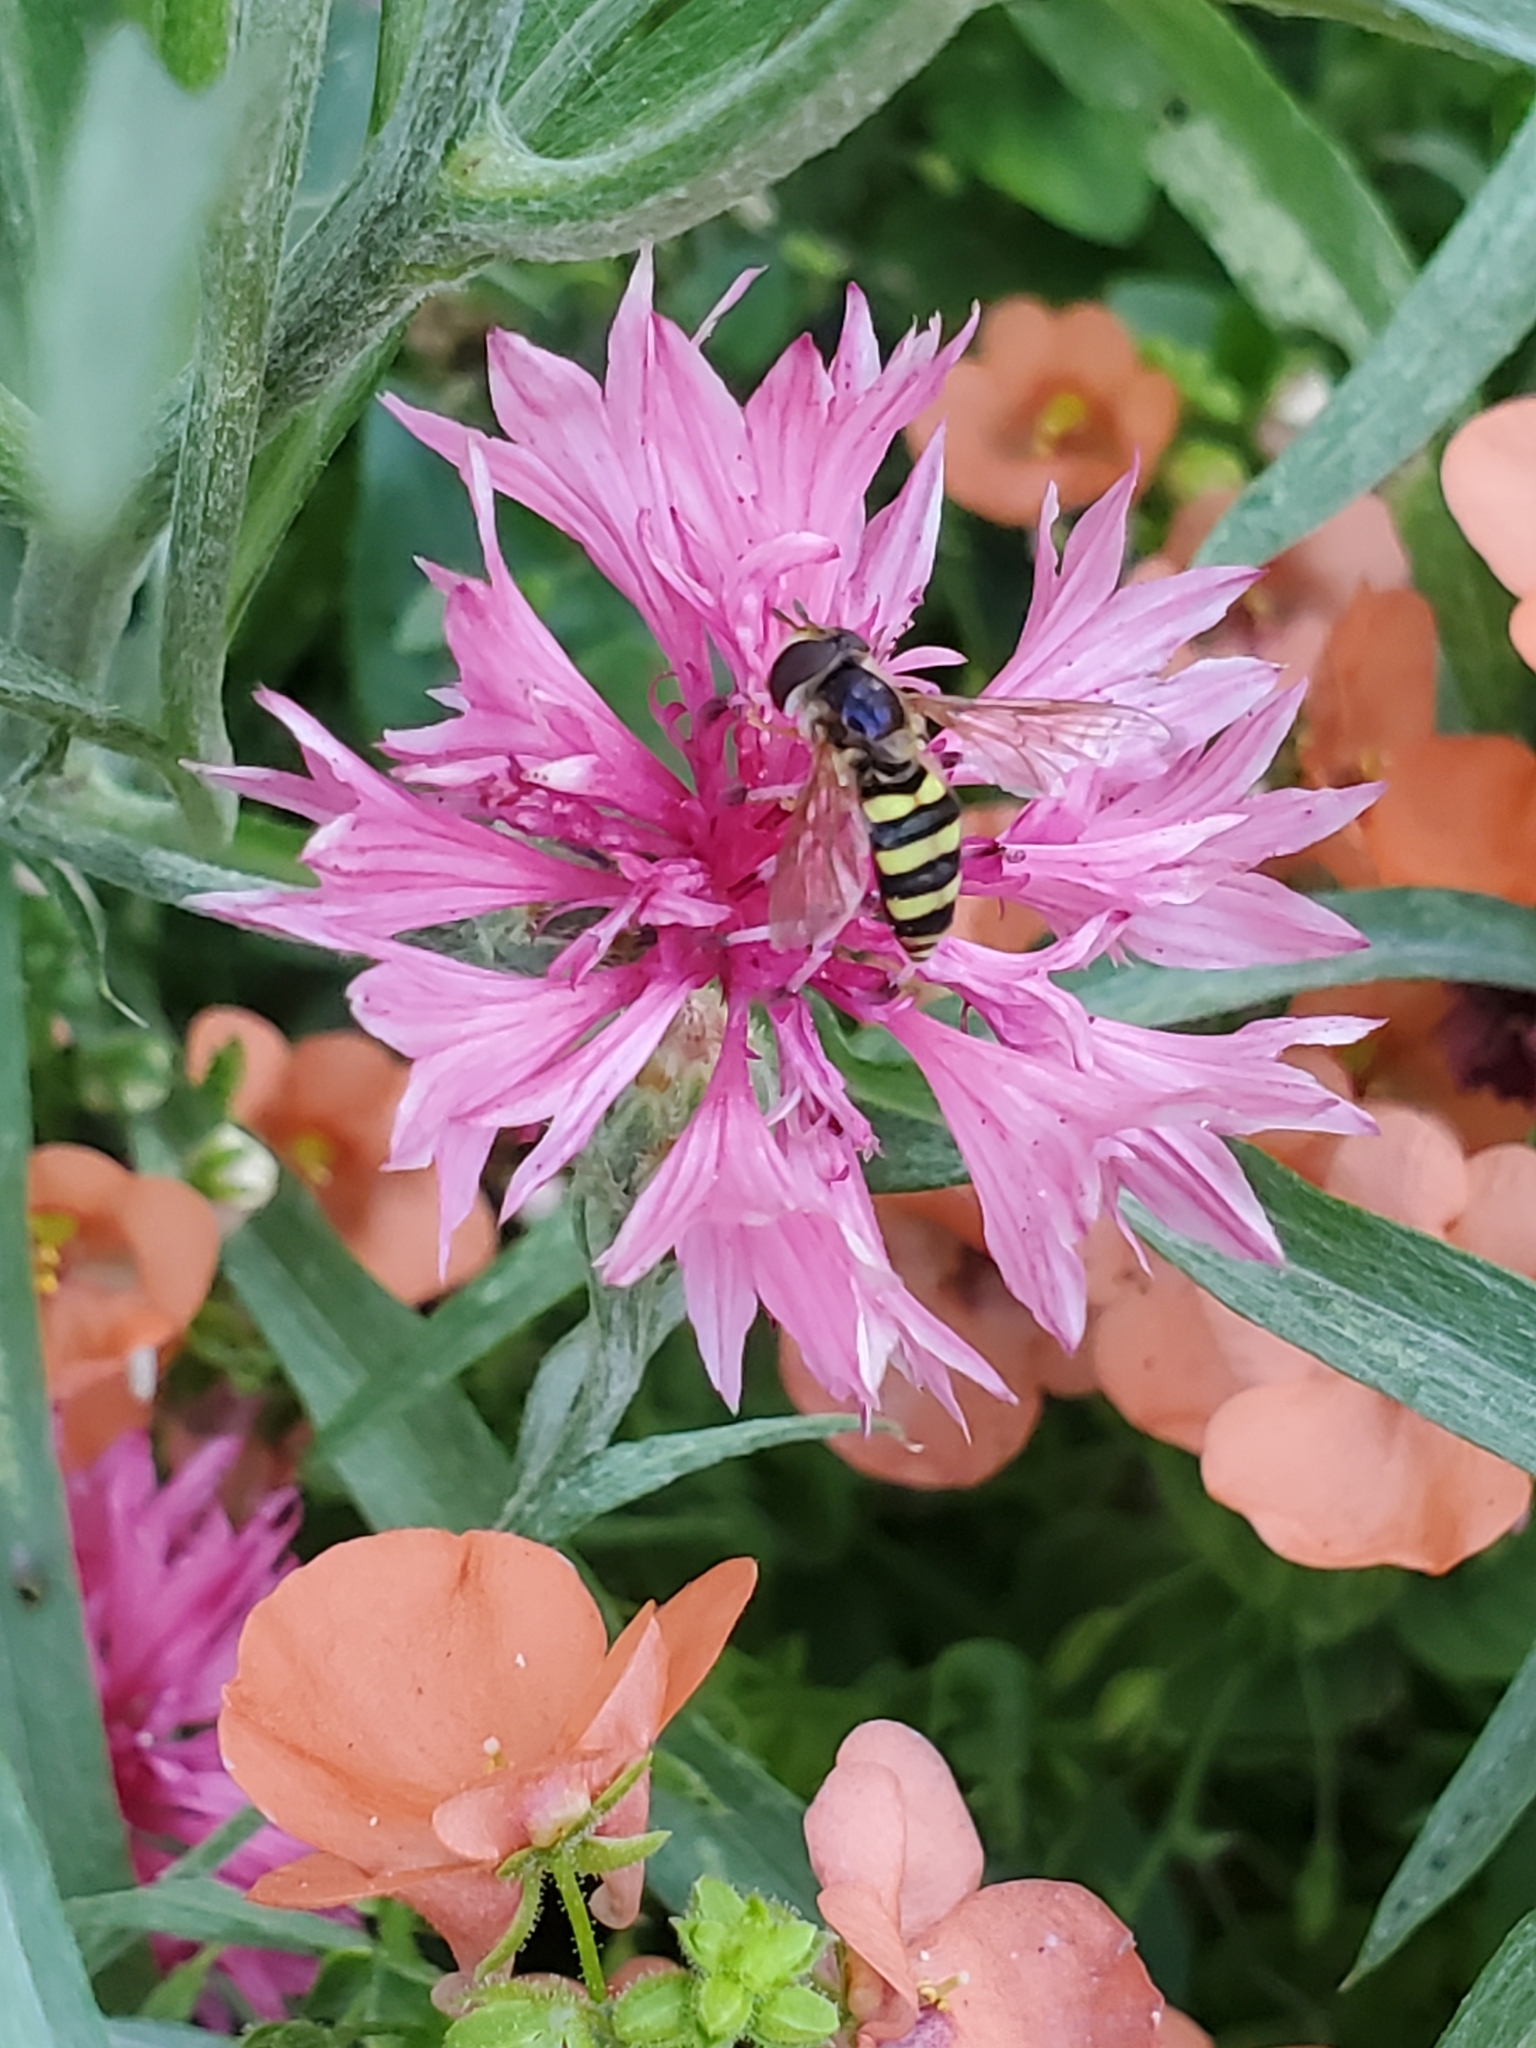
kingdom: Animalia
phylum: Arthropoda
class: Insecta
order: Diptera
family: Syrphidae
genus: Eupeodes
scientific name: Eupeodes
